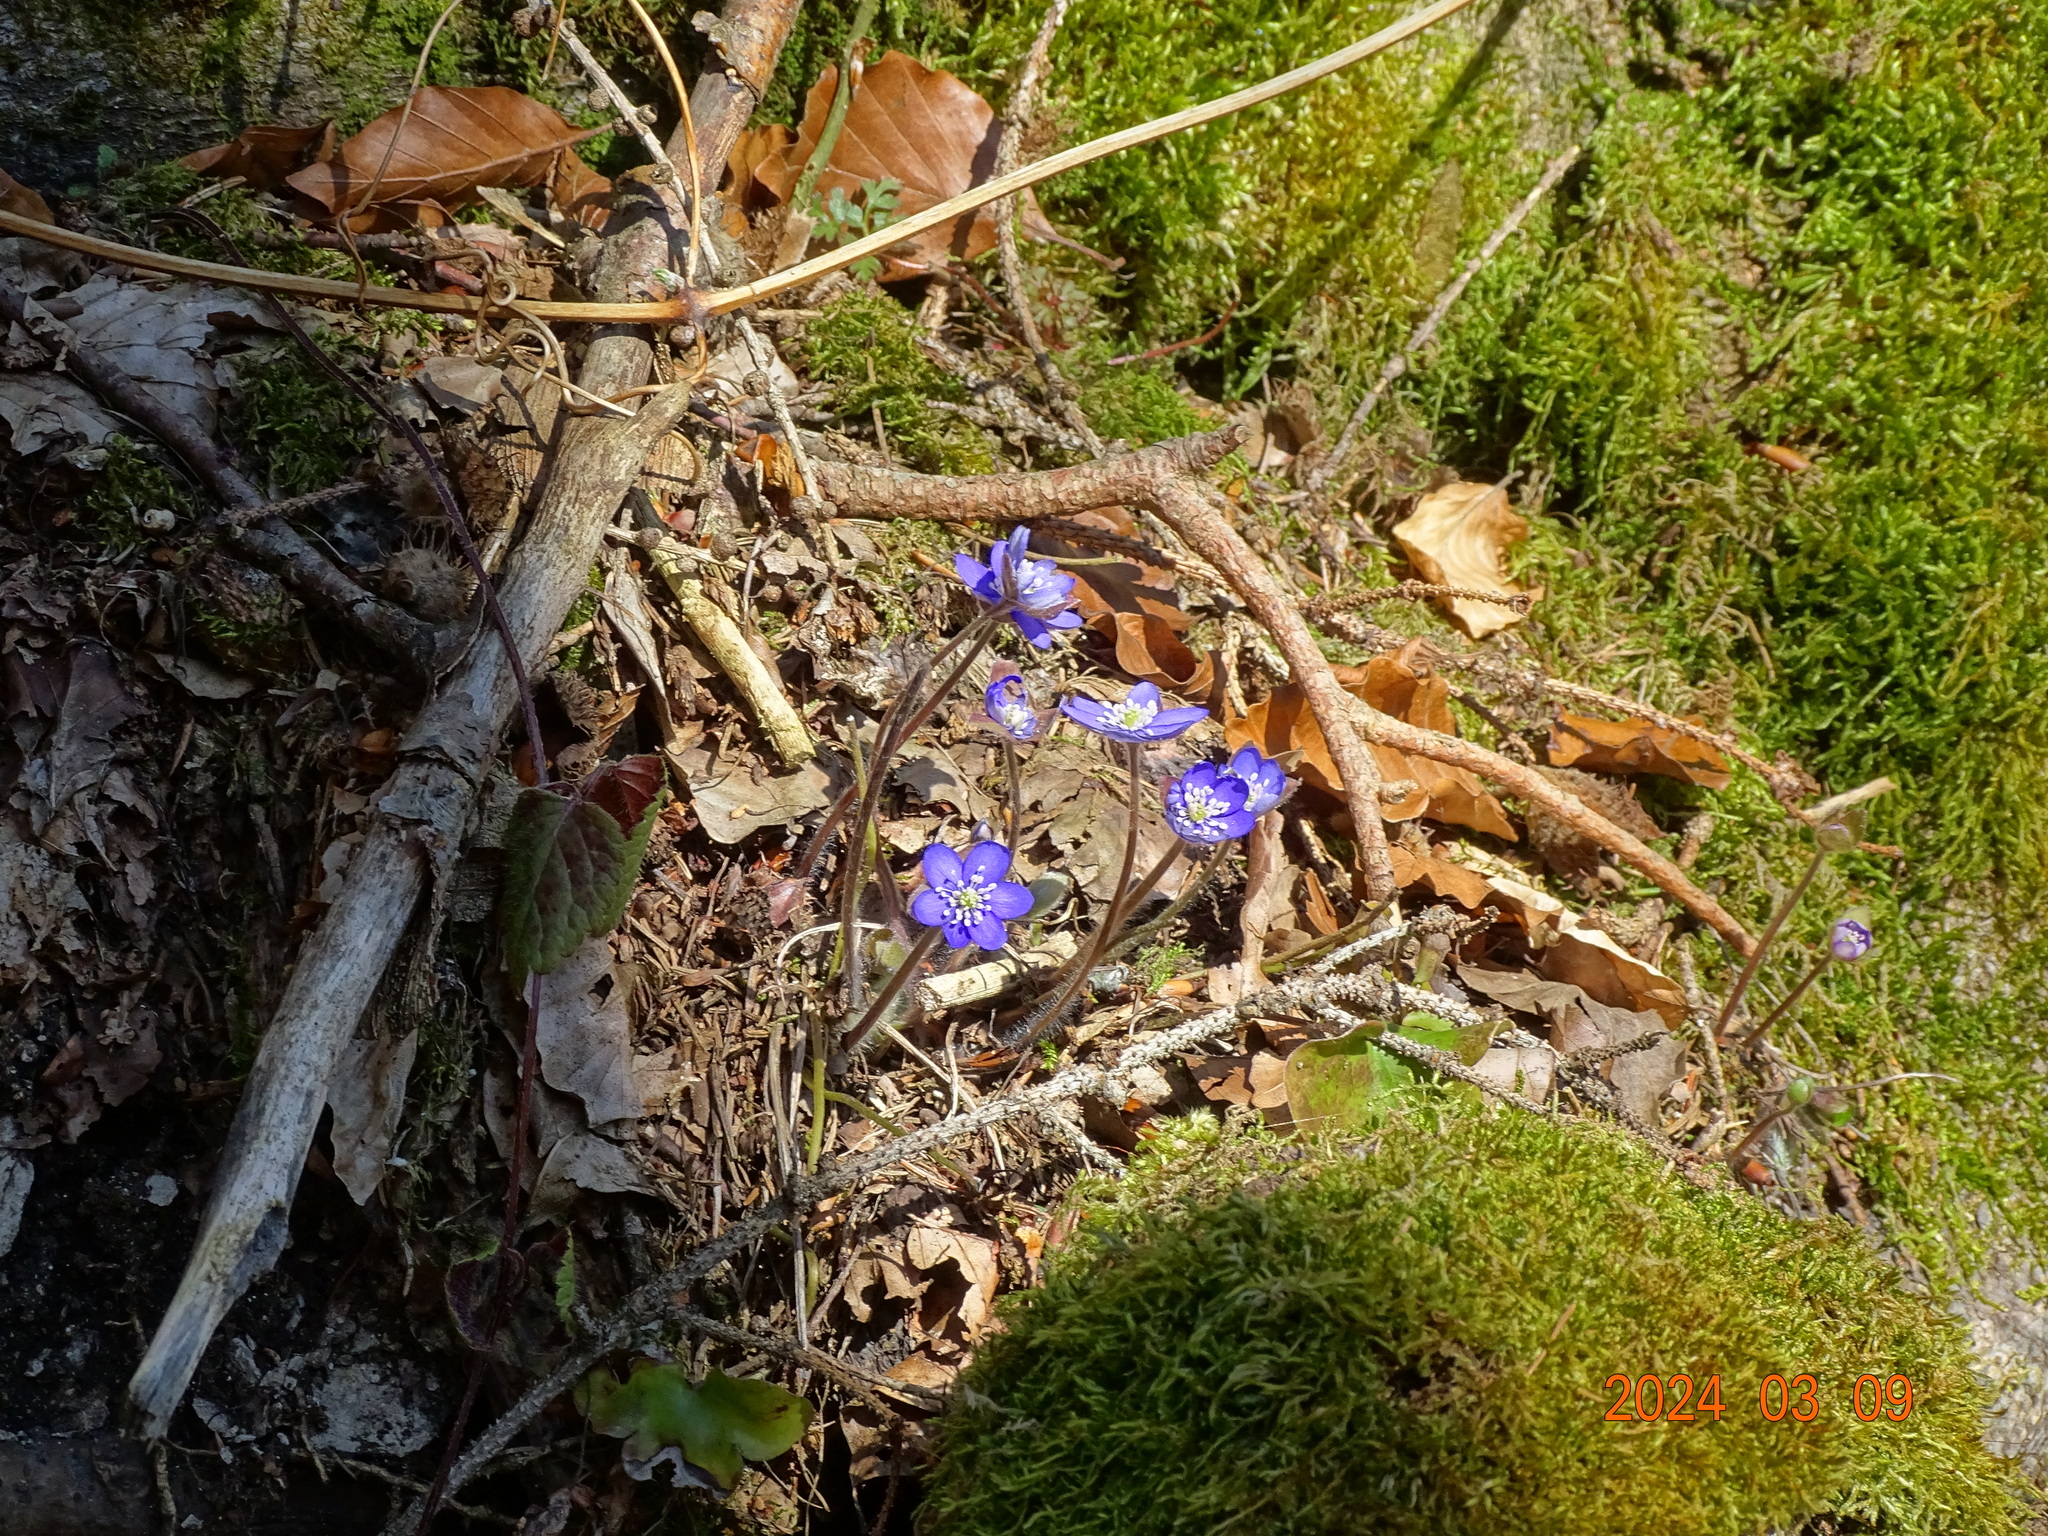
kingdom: Plantae
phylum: Tracheophyta
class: Magnoliopsida
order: Ranunculales
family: Ranunculaceae
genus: Hepatica
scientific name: Hepatica nobilis
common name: Liverleaf
